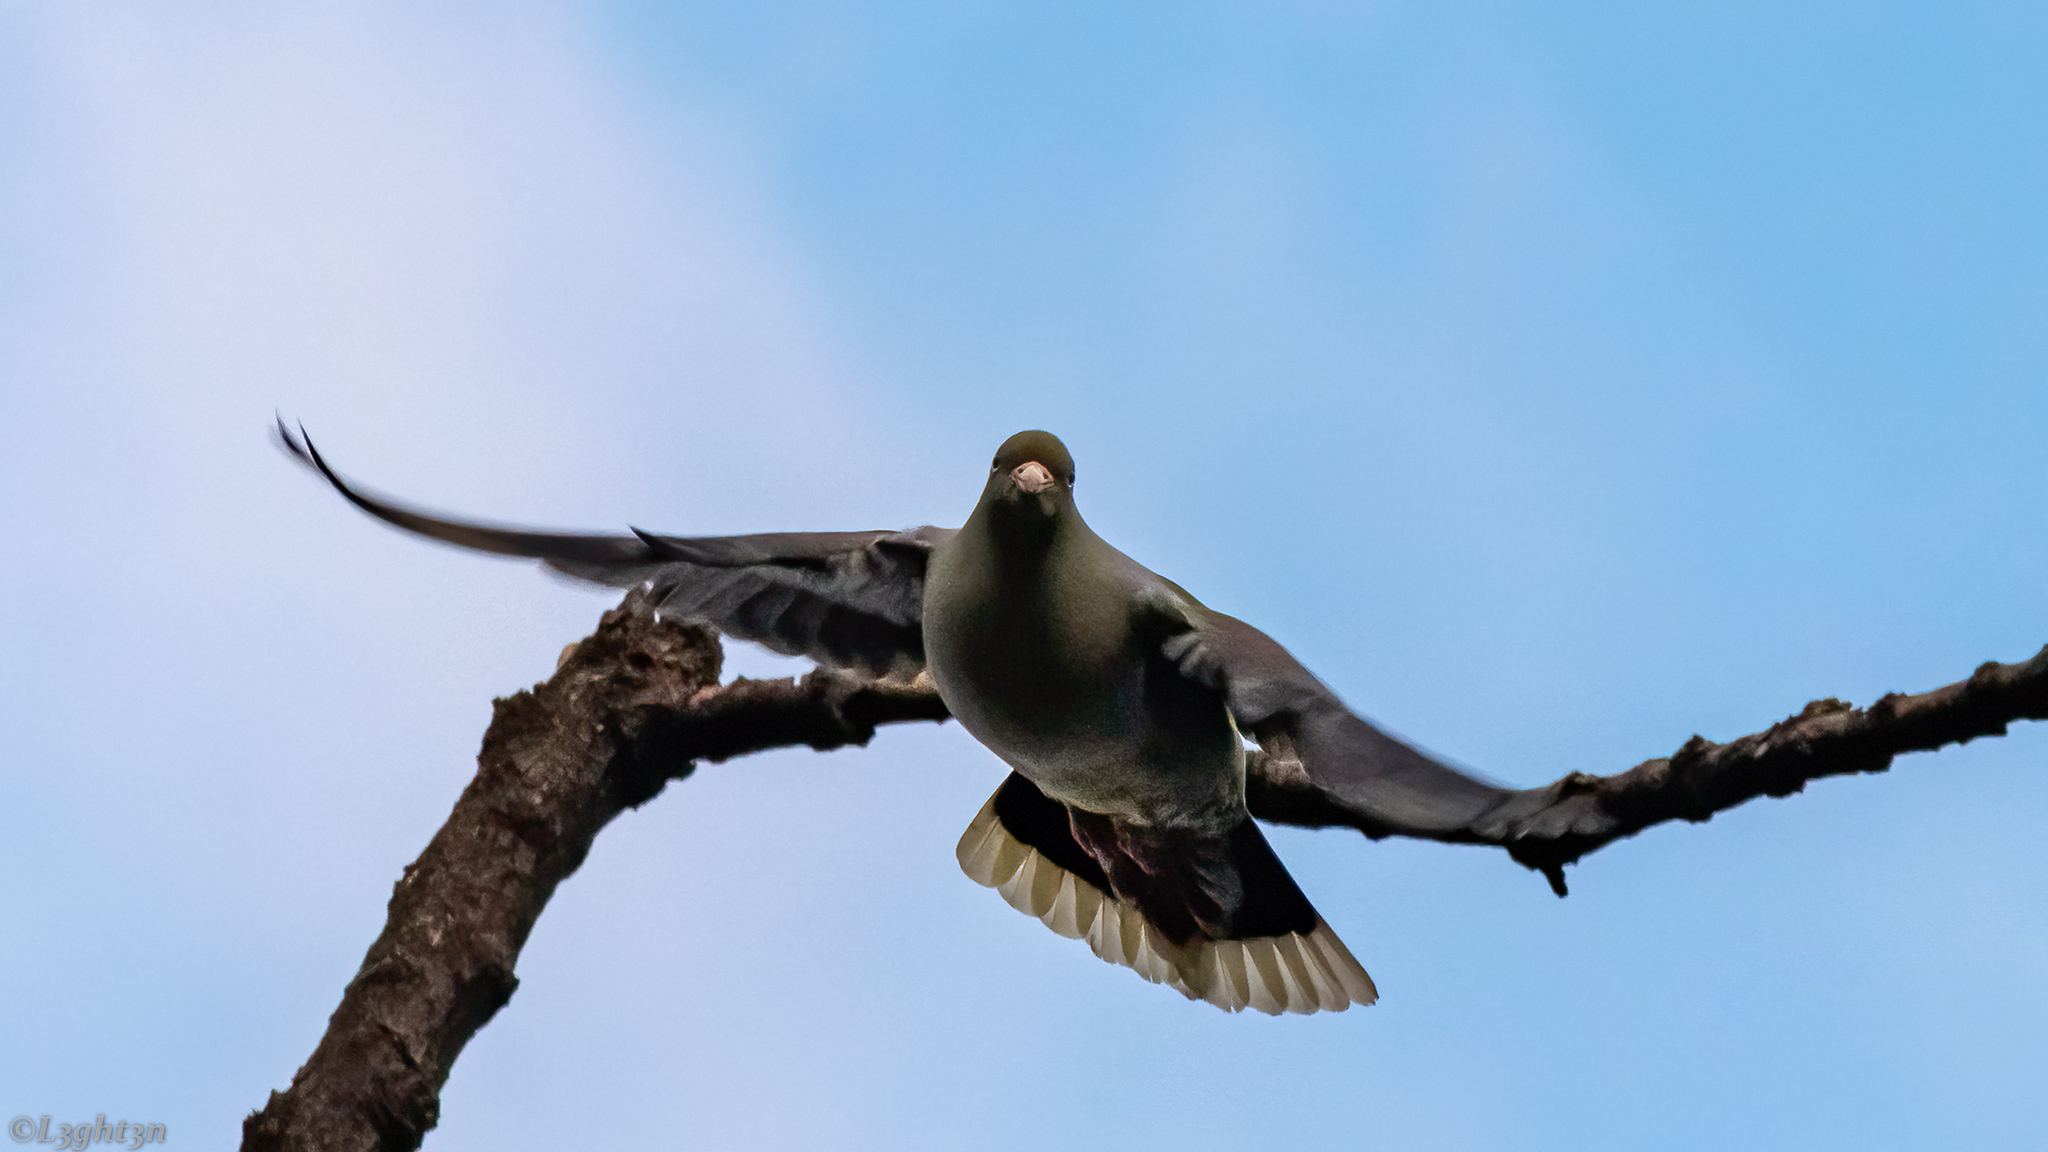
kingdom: Animalia
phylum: Chordata
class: Aves
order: Columbiformes
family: Columbidae
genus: Treron
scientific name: Treron calvus
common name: African green pigeon
